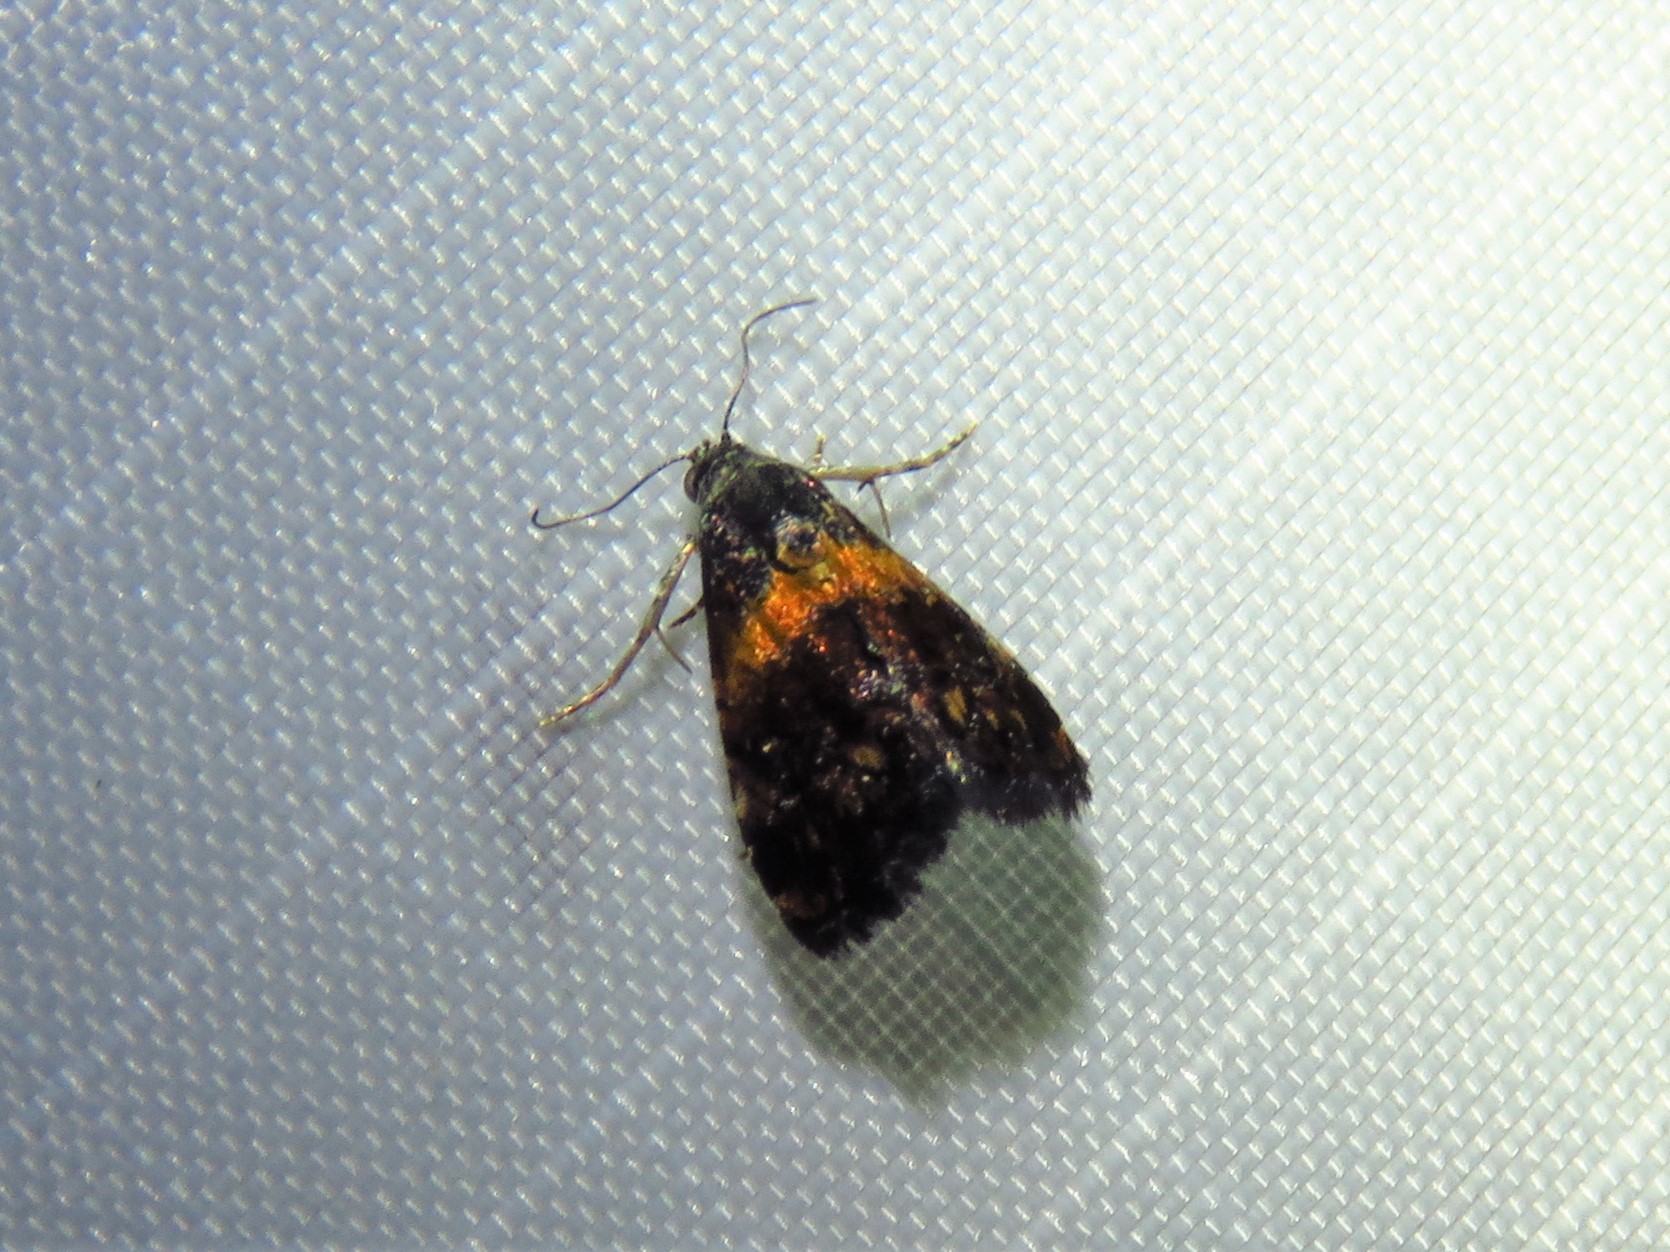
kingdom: Animalia
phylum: Arthropoda
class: Insecta
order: Lepidoptera
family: Noctuidae
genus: Tripudia
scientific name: Tripudia flavofasciata
